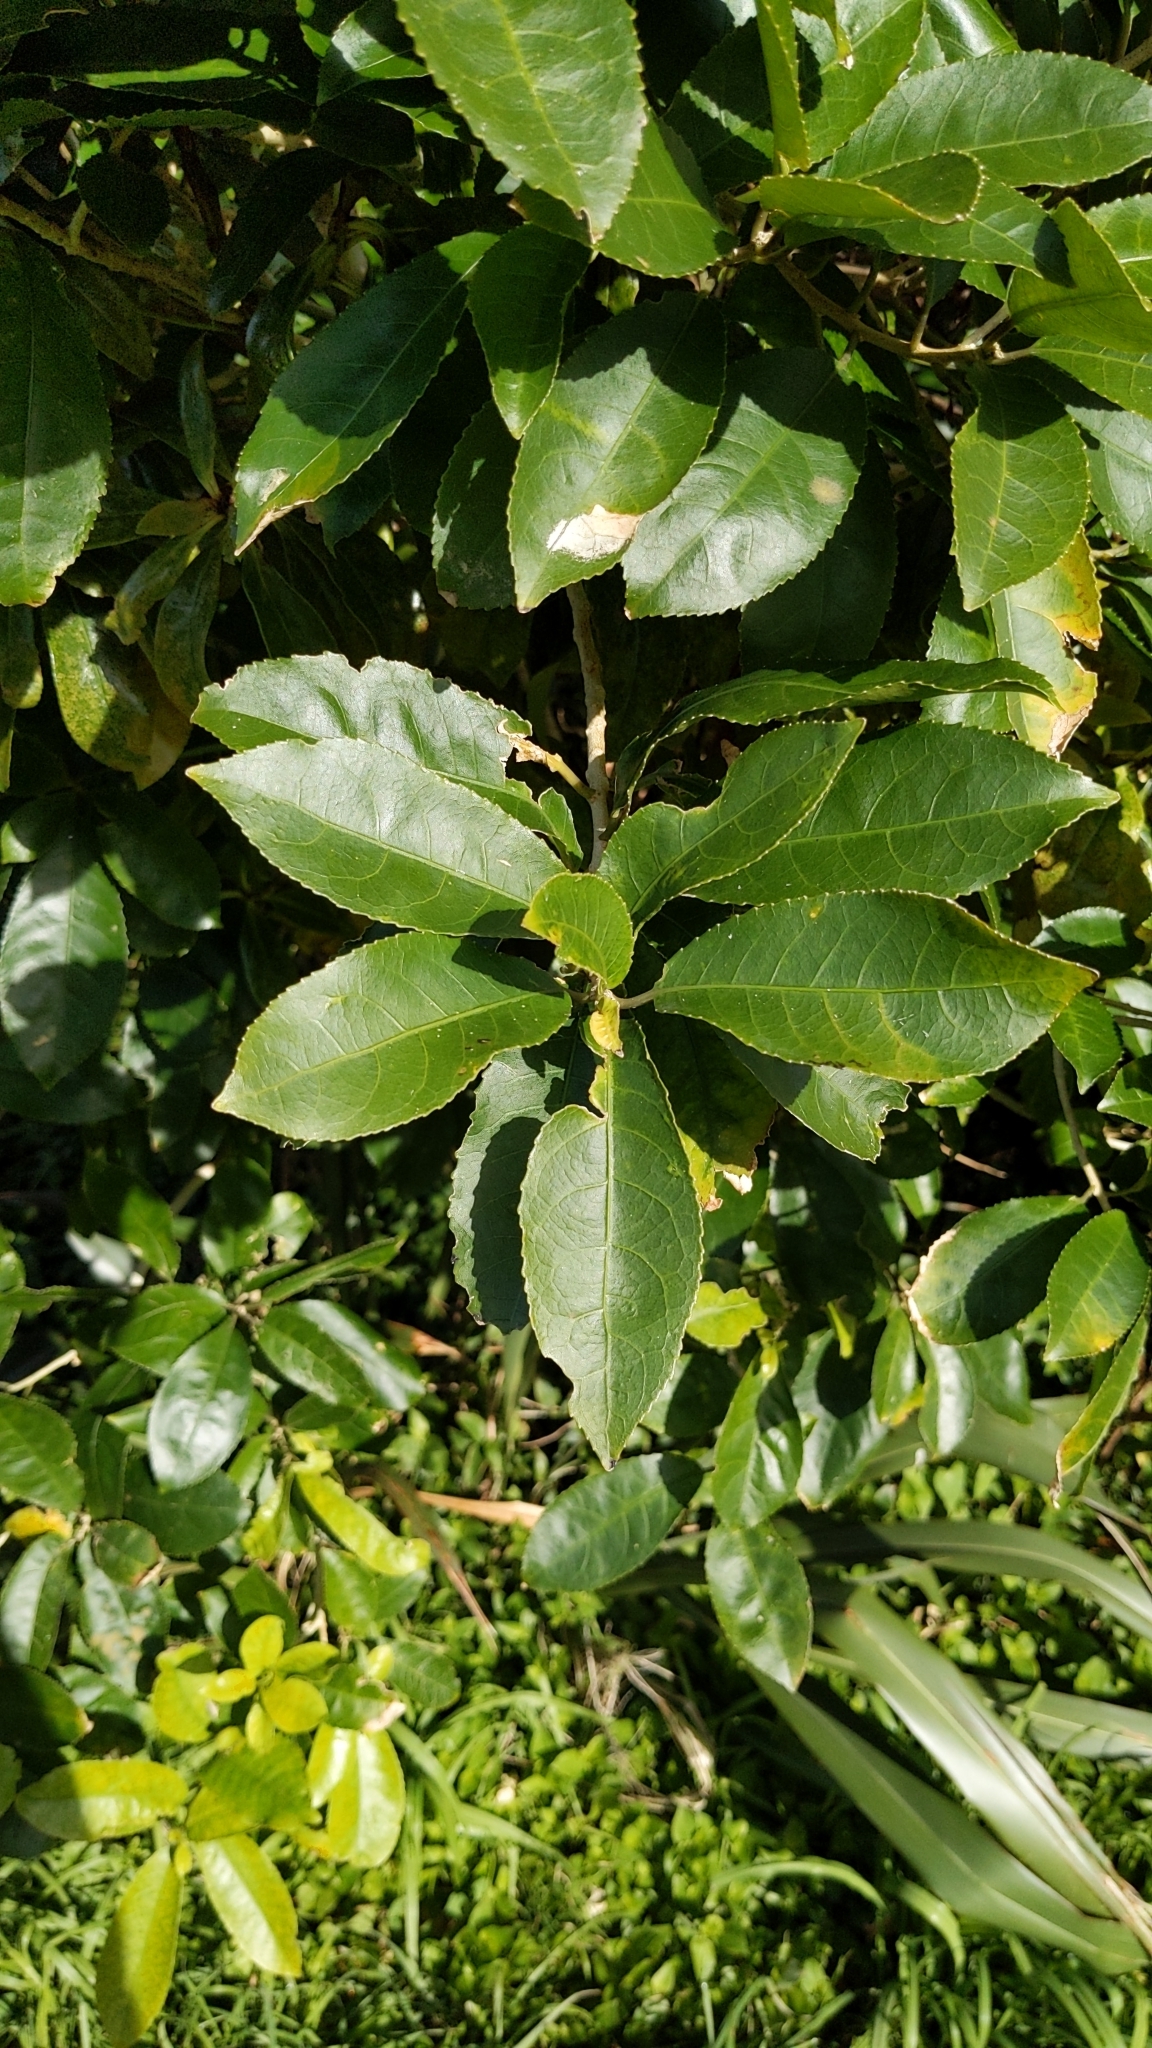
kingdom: Plantae
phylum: Tracheophyta
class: Magnoliopsida
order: Malpighiales
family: Violaceae
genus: Melicytus
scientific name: Melicytus ramiflorus
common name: Mahoe
